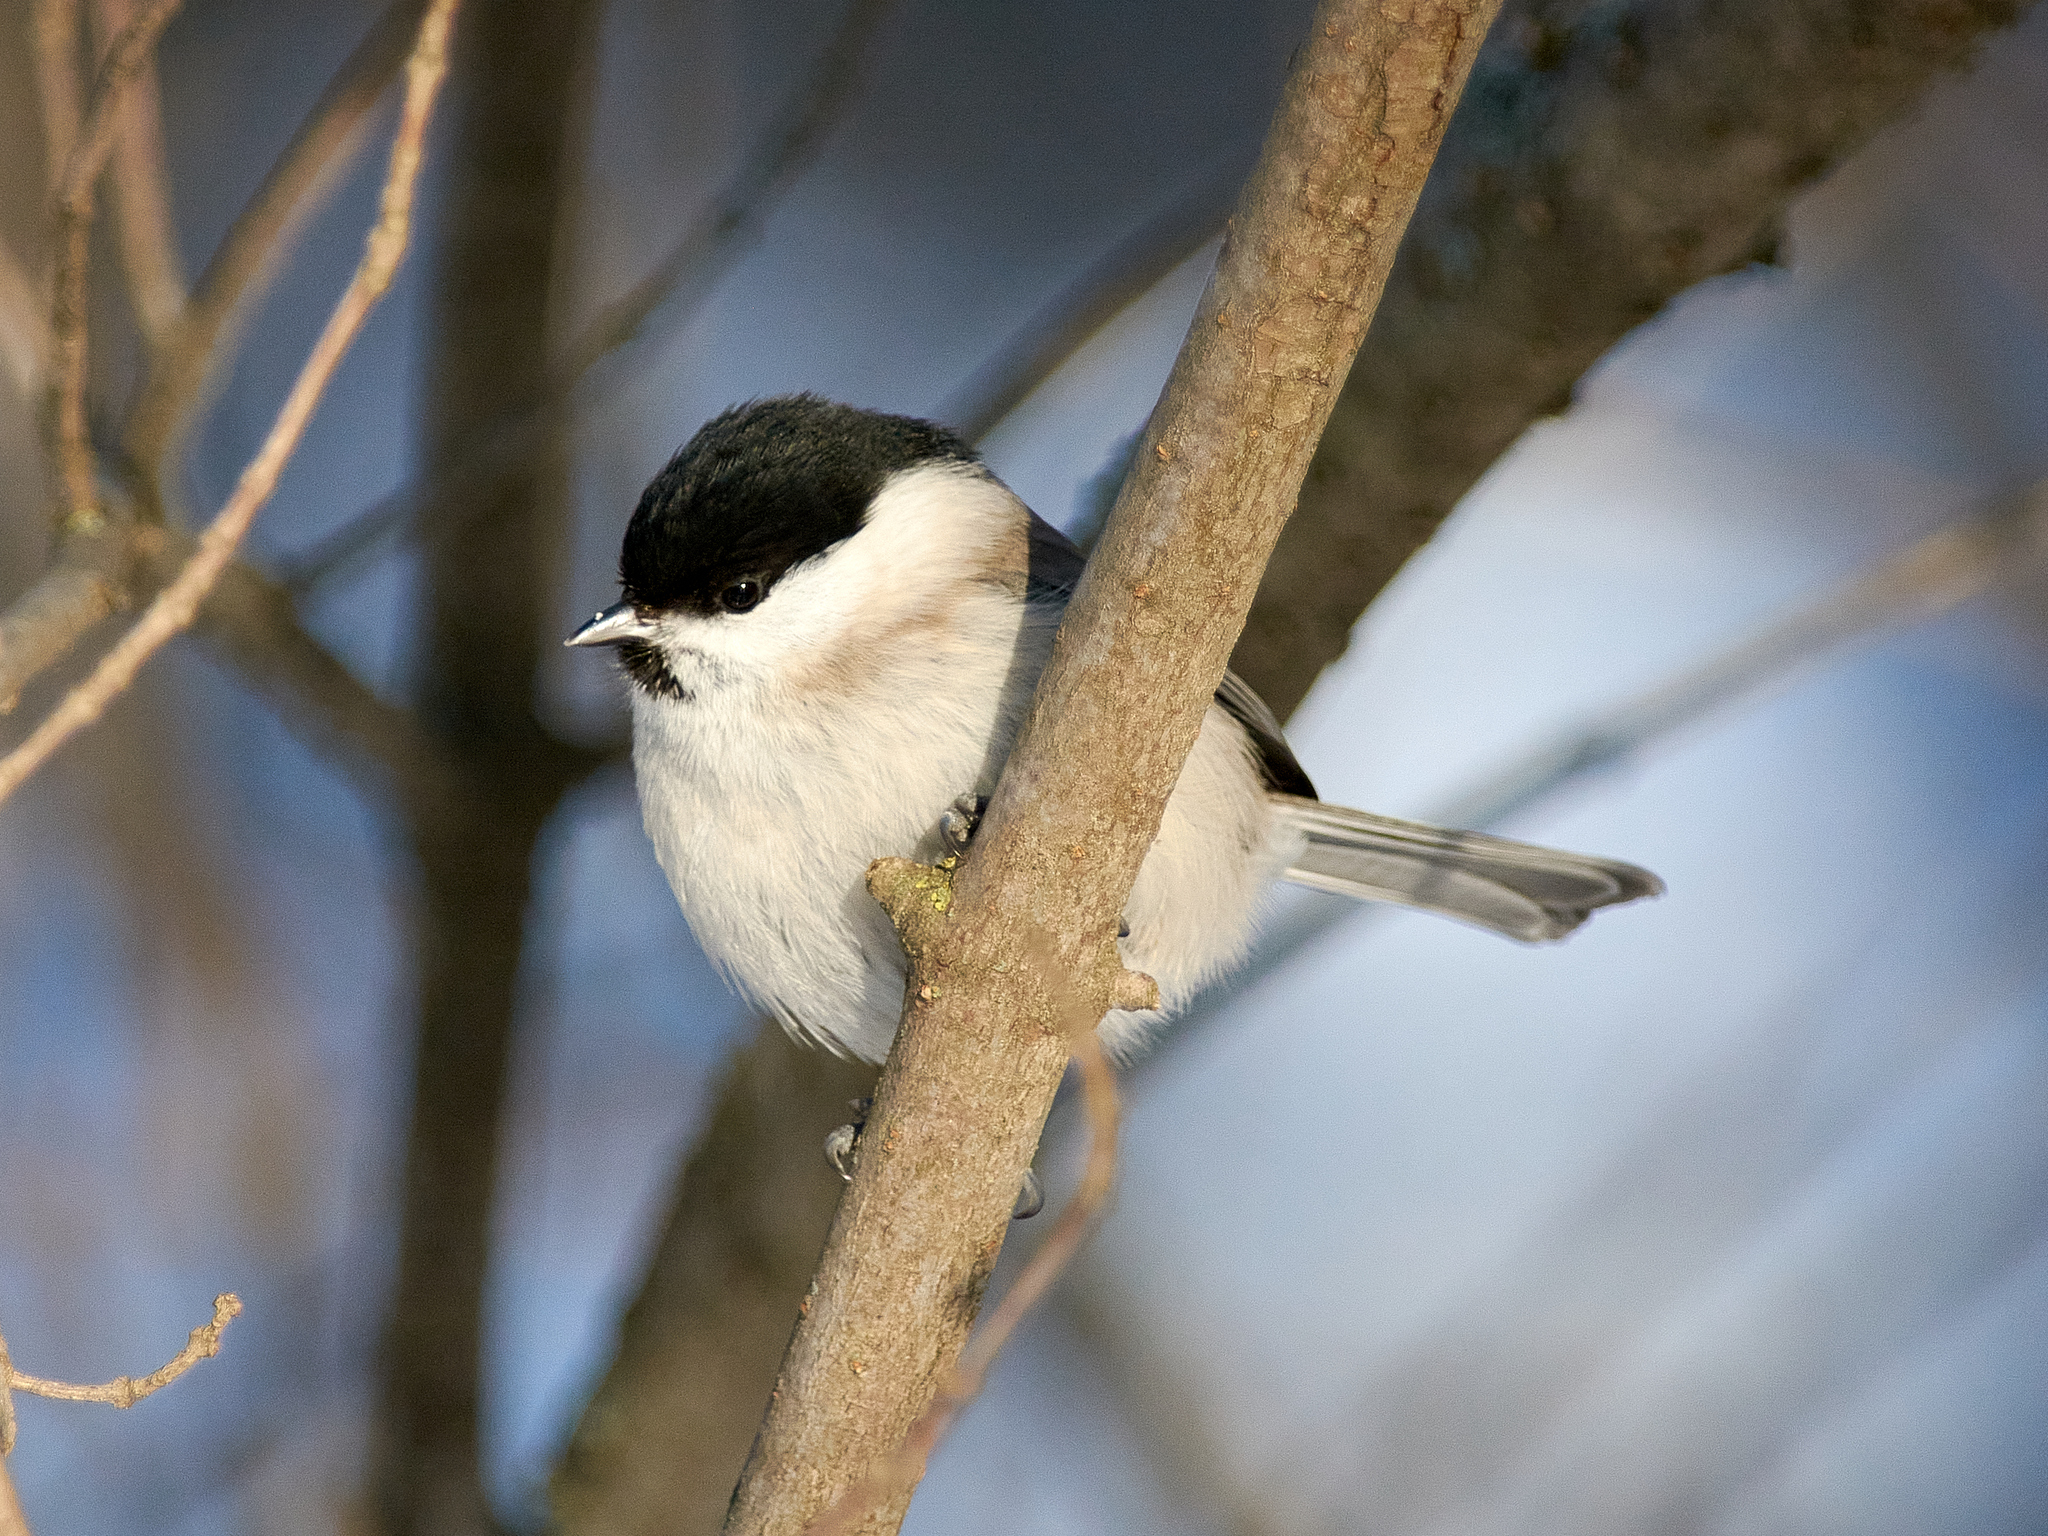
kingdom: Animalia
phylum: Chordata
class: Aves
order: Passeriformes
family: Paridae
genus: Poecile
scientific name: Poecile palustris
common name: Marsh tit
